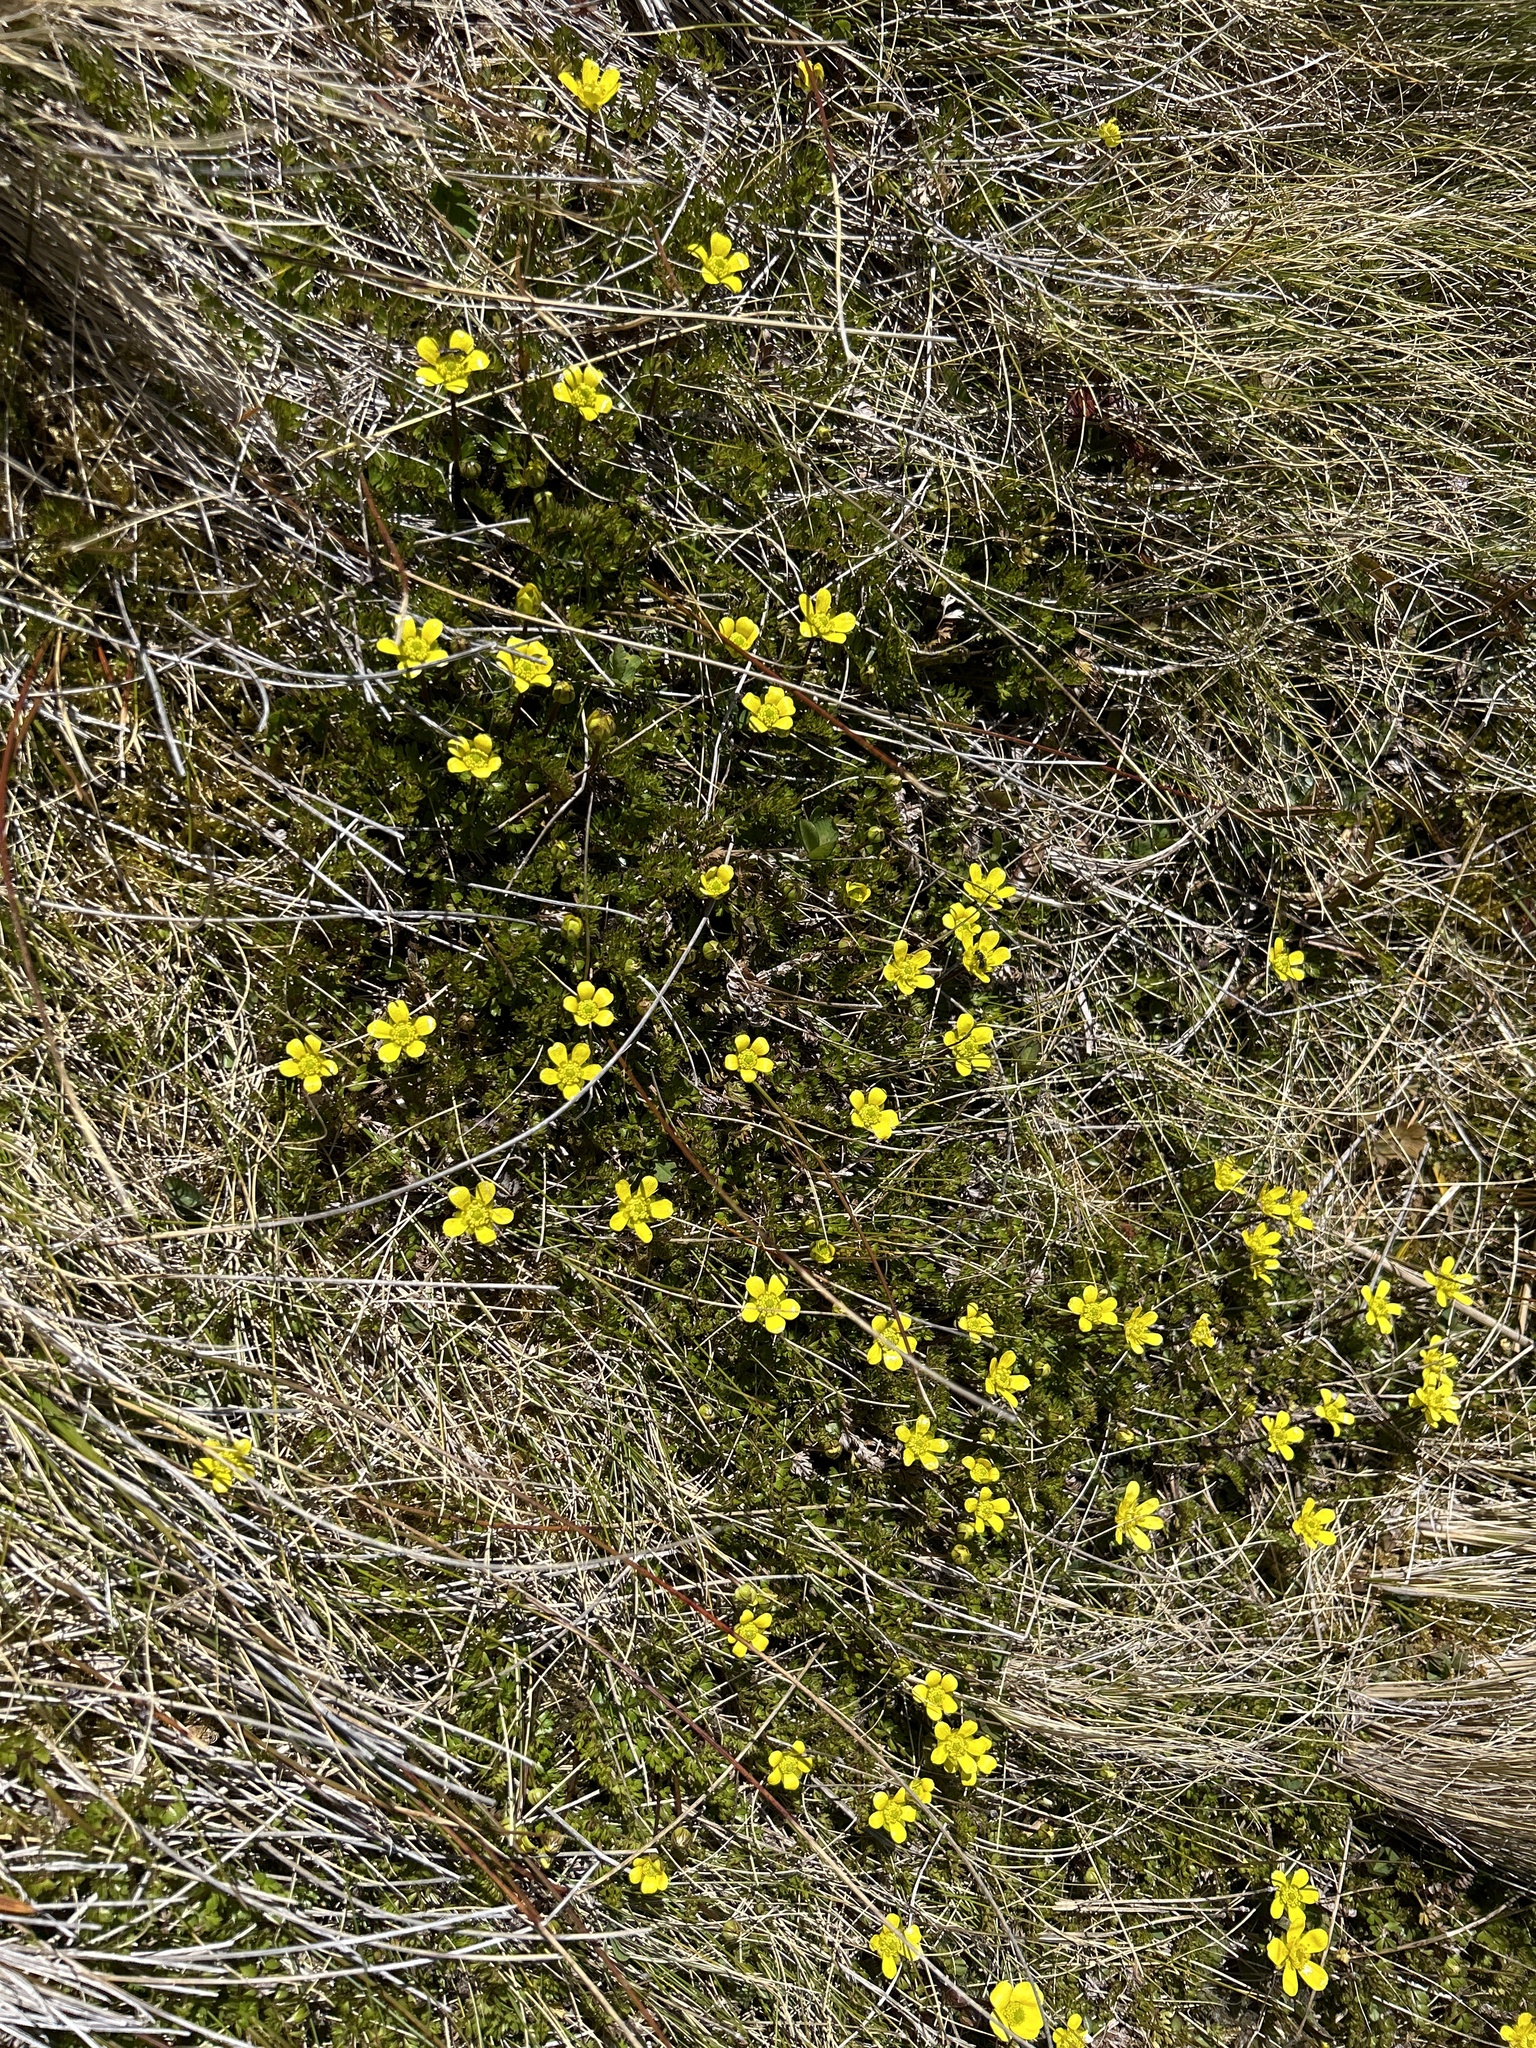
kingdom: Plantae
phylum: Tracheophyta
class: Magnoliopsida
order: Ranunculales
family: Ranunculaceae
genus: Ranunculus
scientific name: Ranunculus gracilipes
